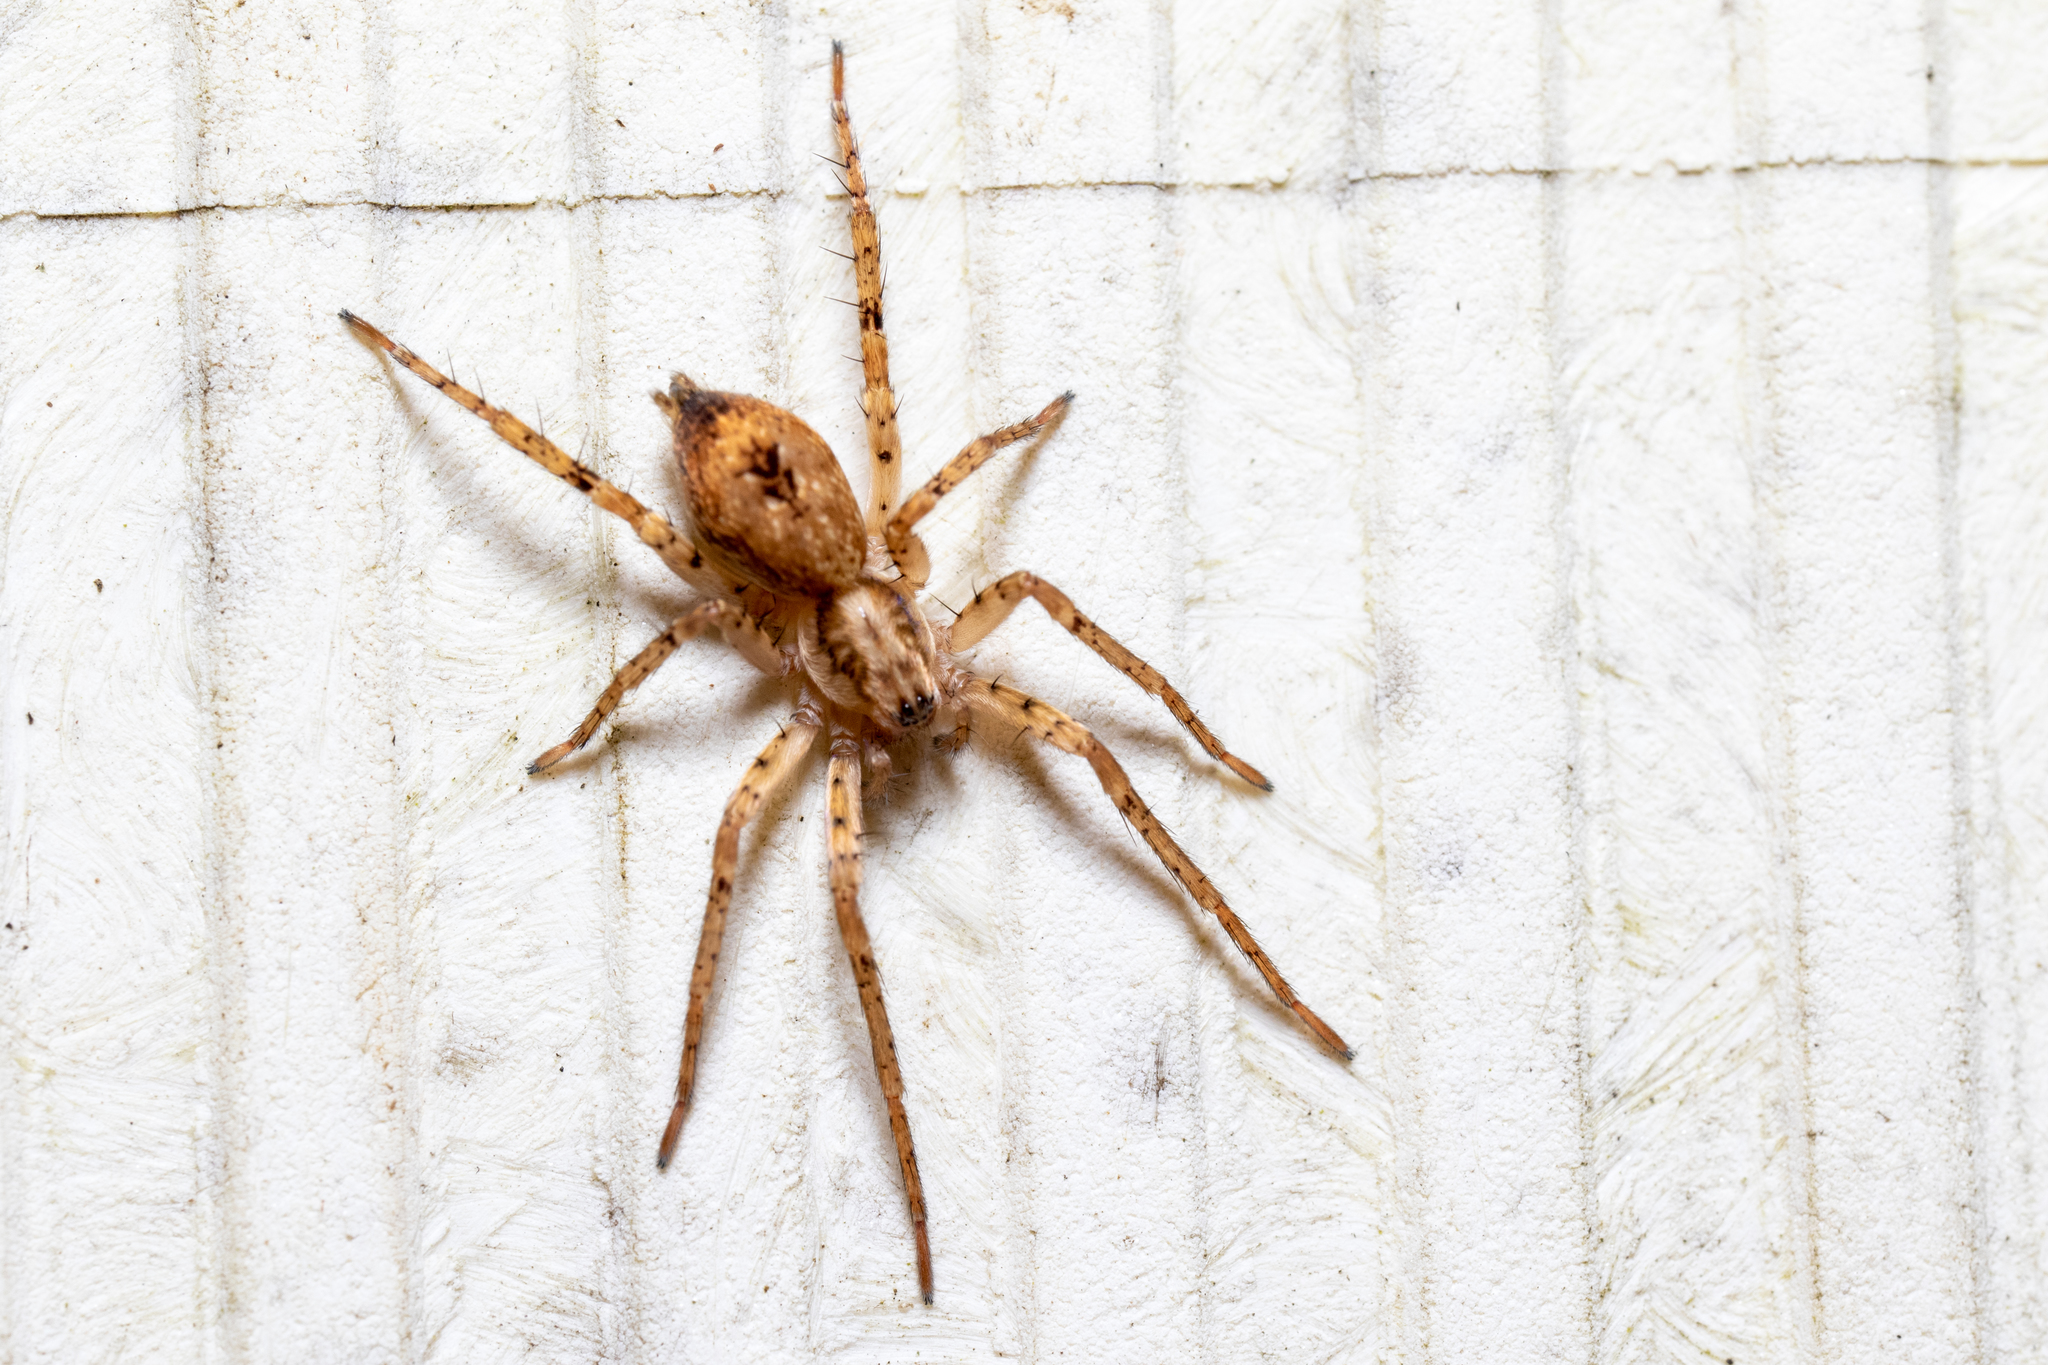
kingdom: Animalia
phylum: Arthropoda
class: Arachnida
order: Araneae
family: Anyphaenidae
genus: Anyphaena
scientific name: Anyphaena accentuata
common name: Buzzing spider
